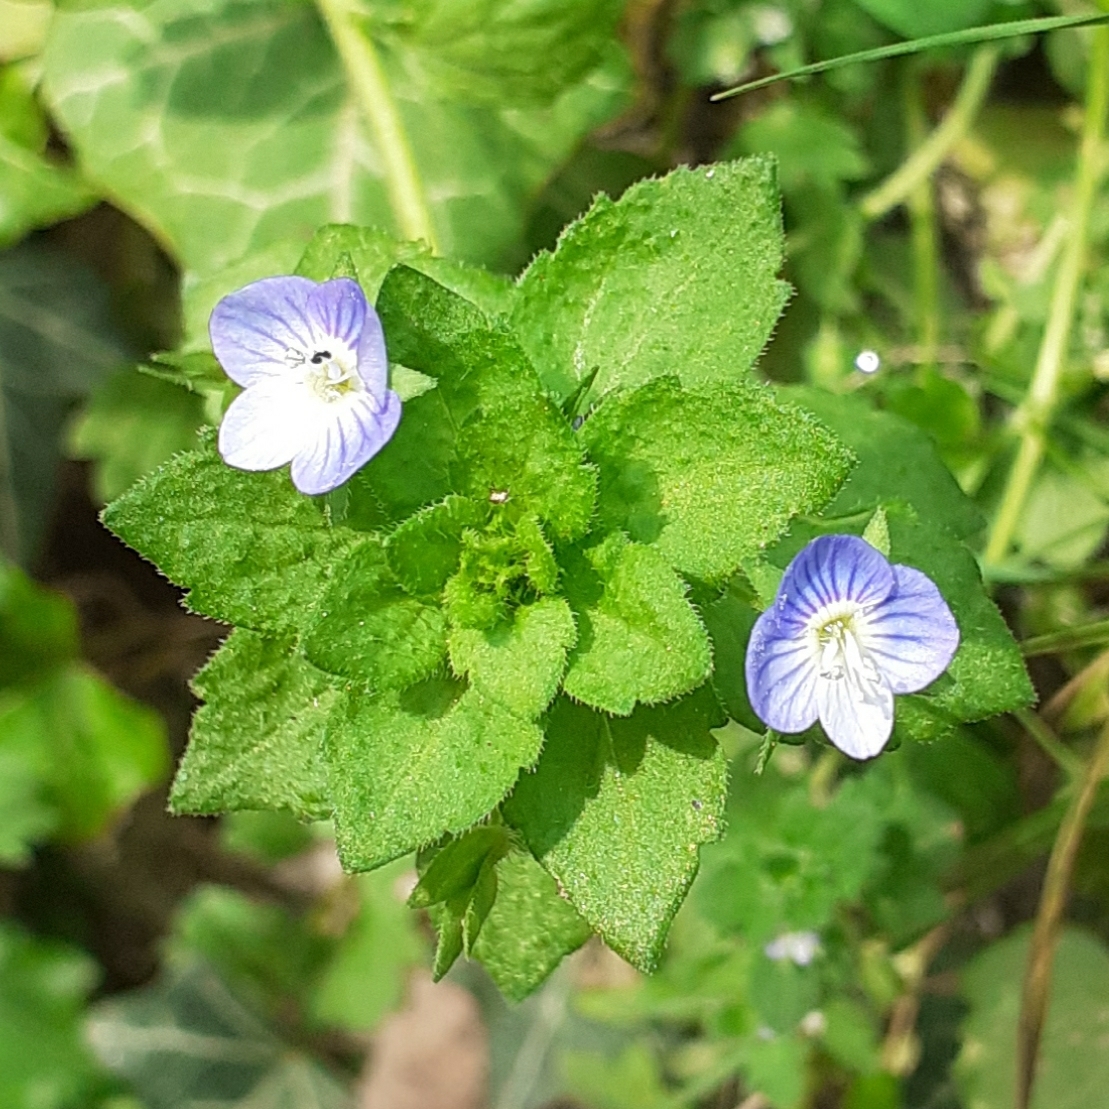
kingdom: Plantae
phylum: Tracheophyta
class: Magnoliopsida
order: Lamiales
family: Plantaginaceae
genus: Veronica
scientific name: Veronica persica
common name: Common field-speedwell
